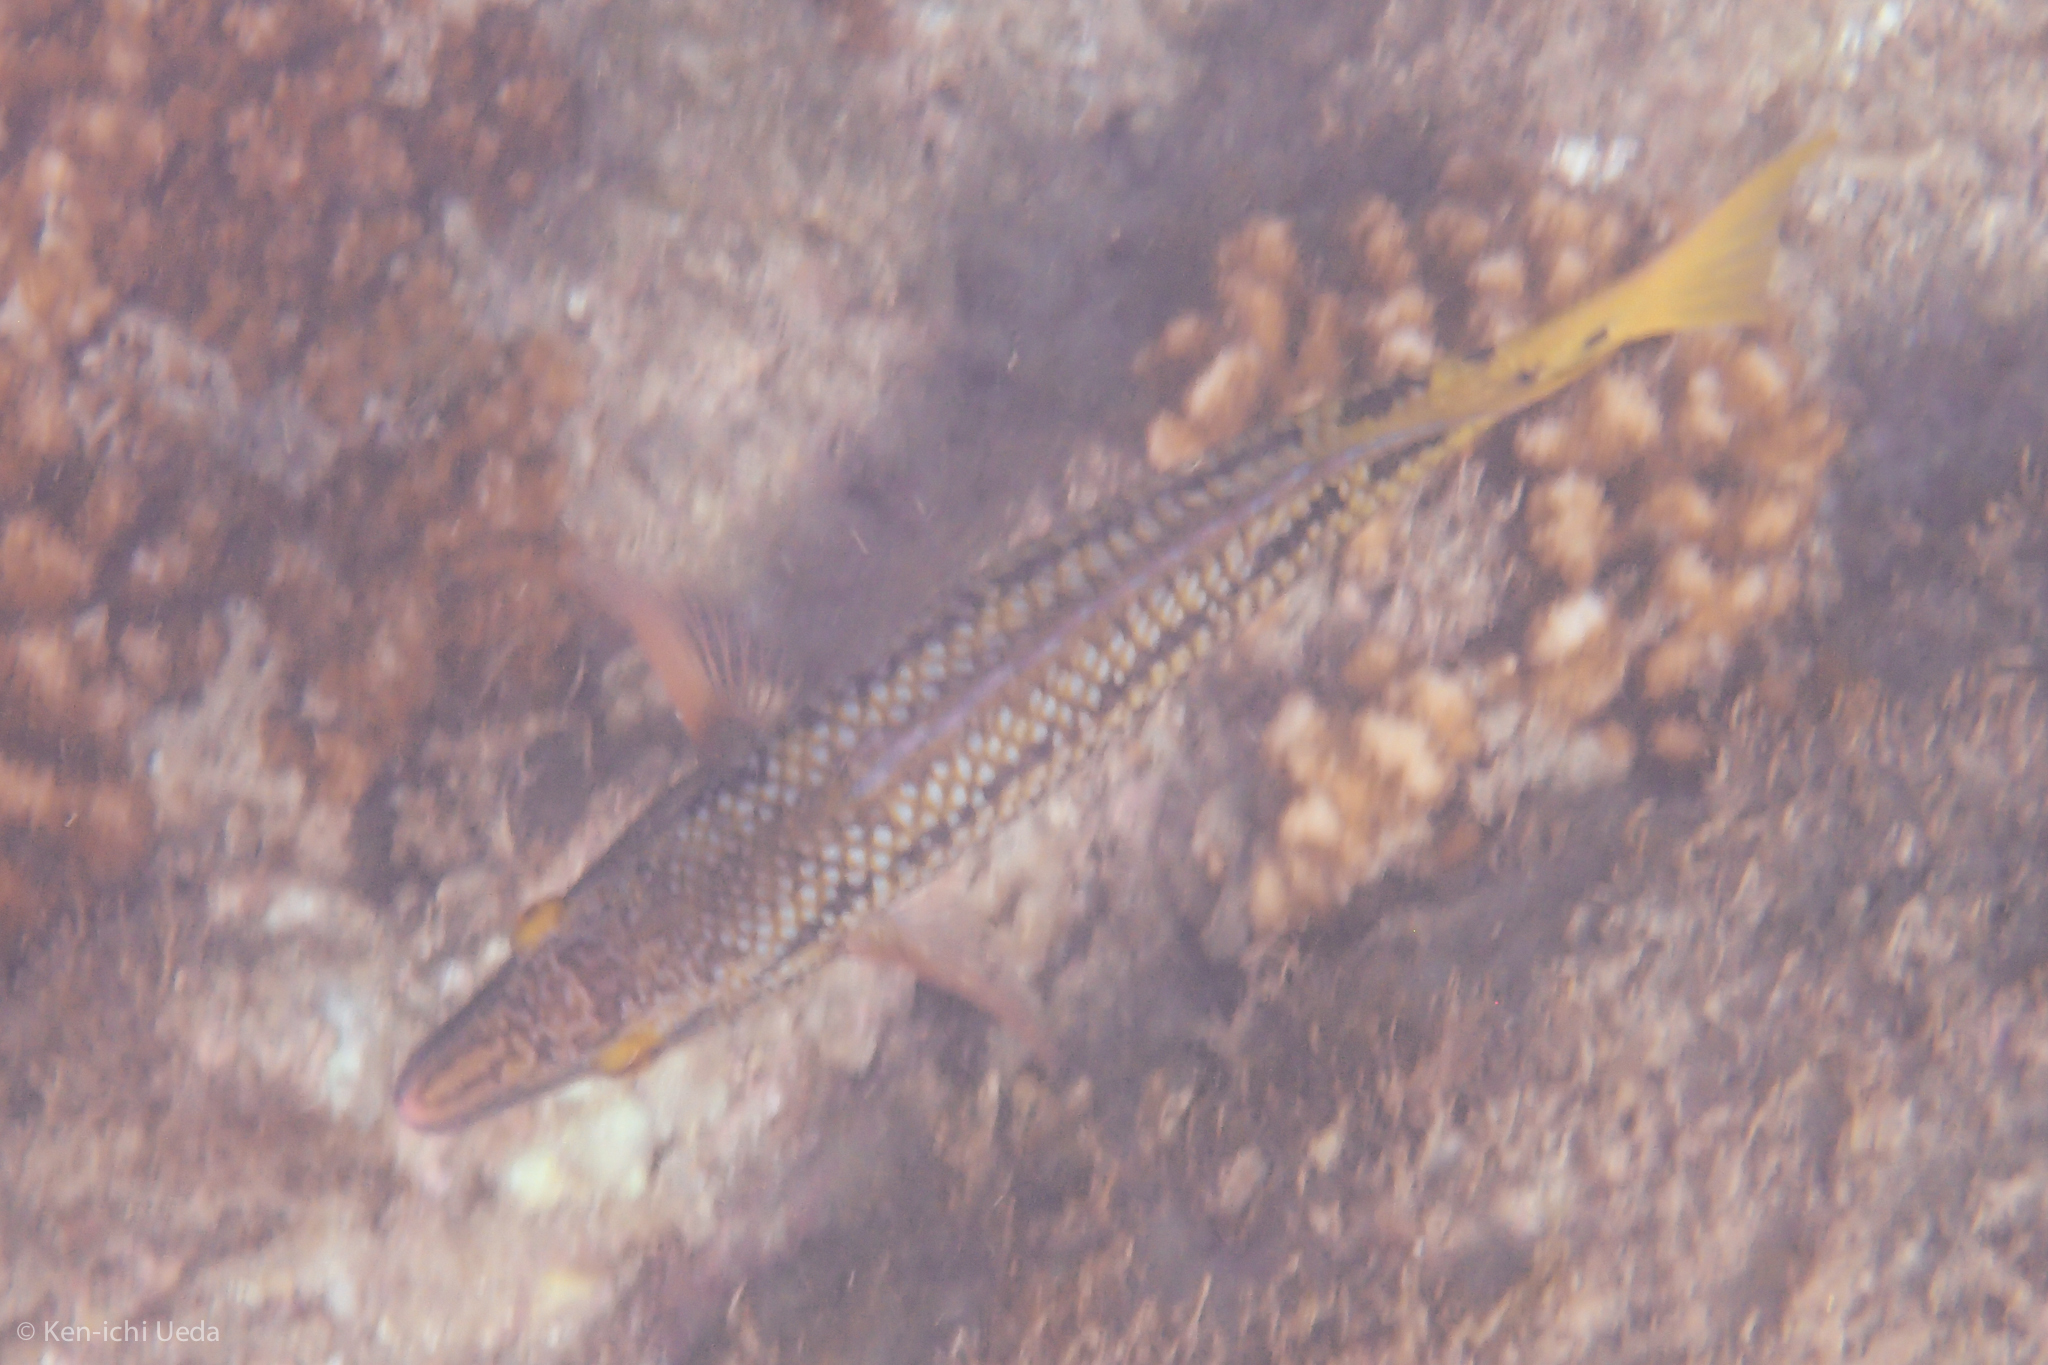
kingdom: Animalia
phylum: Chordata
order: Perciformes
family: Labridae
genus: Bodianus
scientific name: Bodianus diplotaenia
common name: Mexican hogfish
